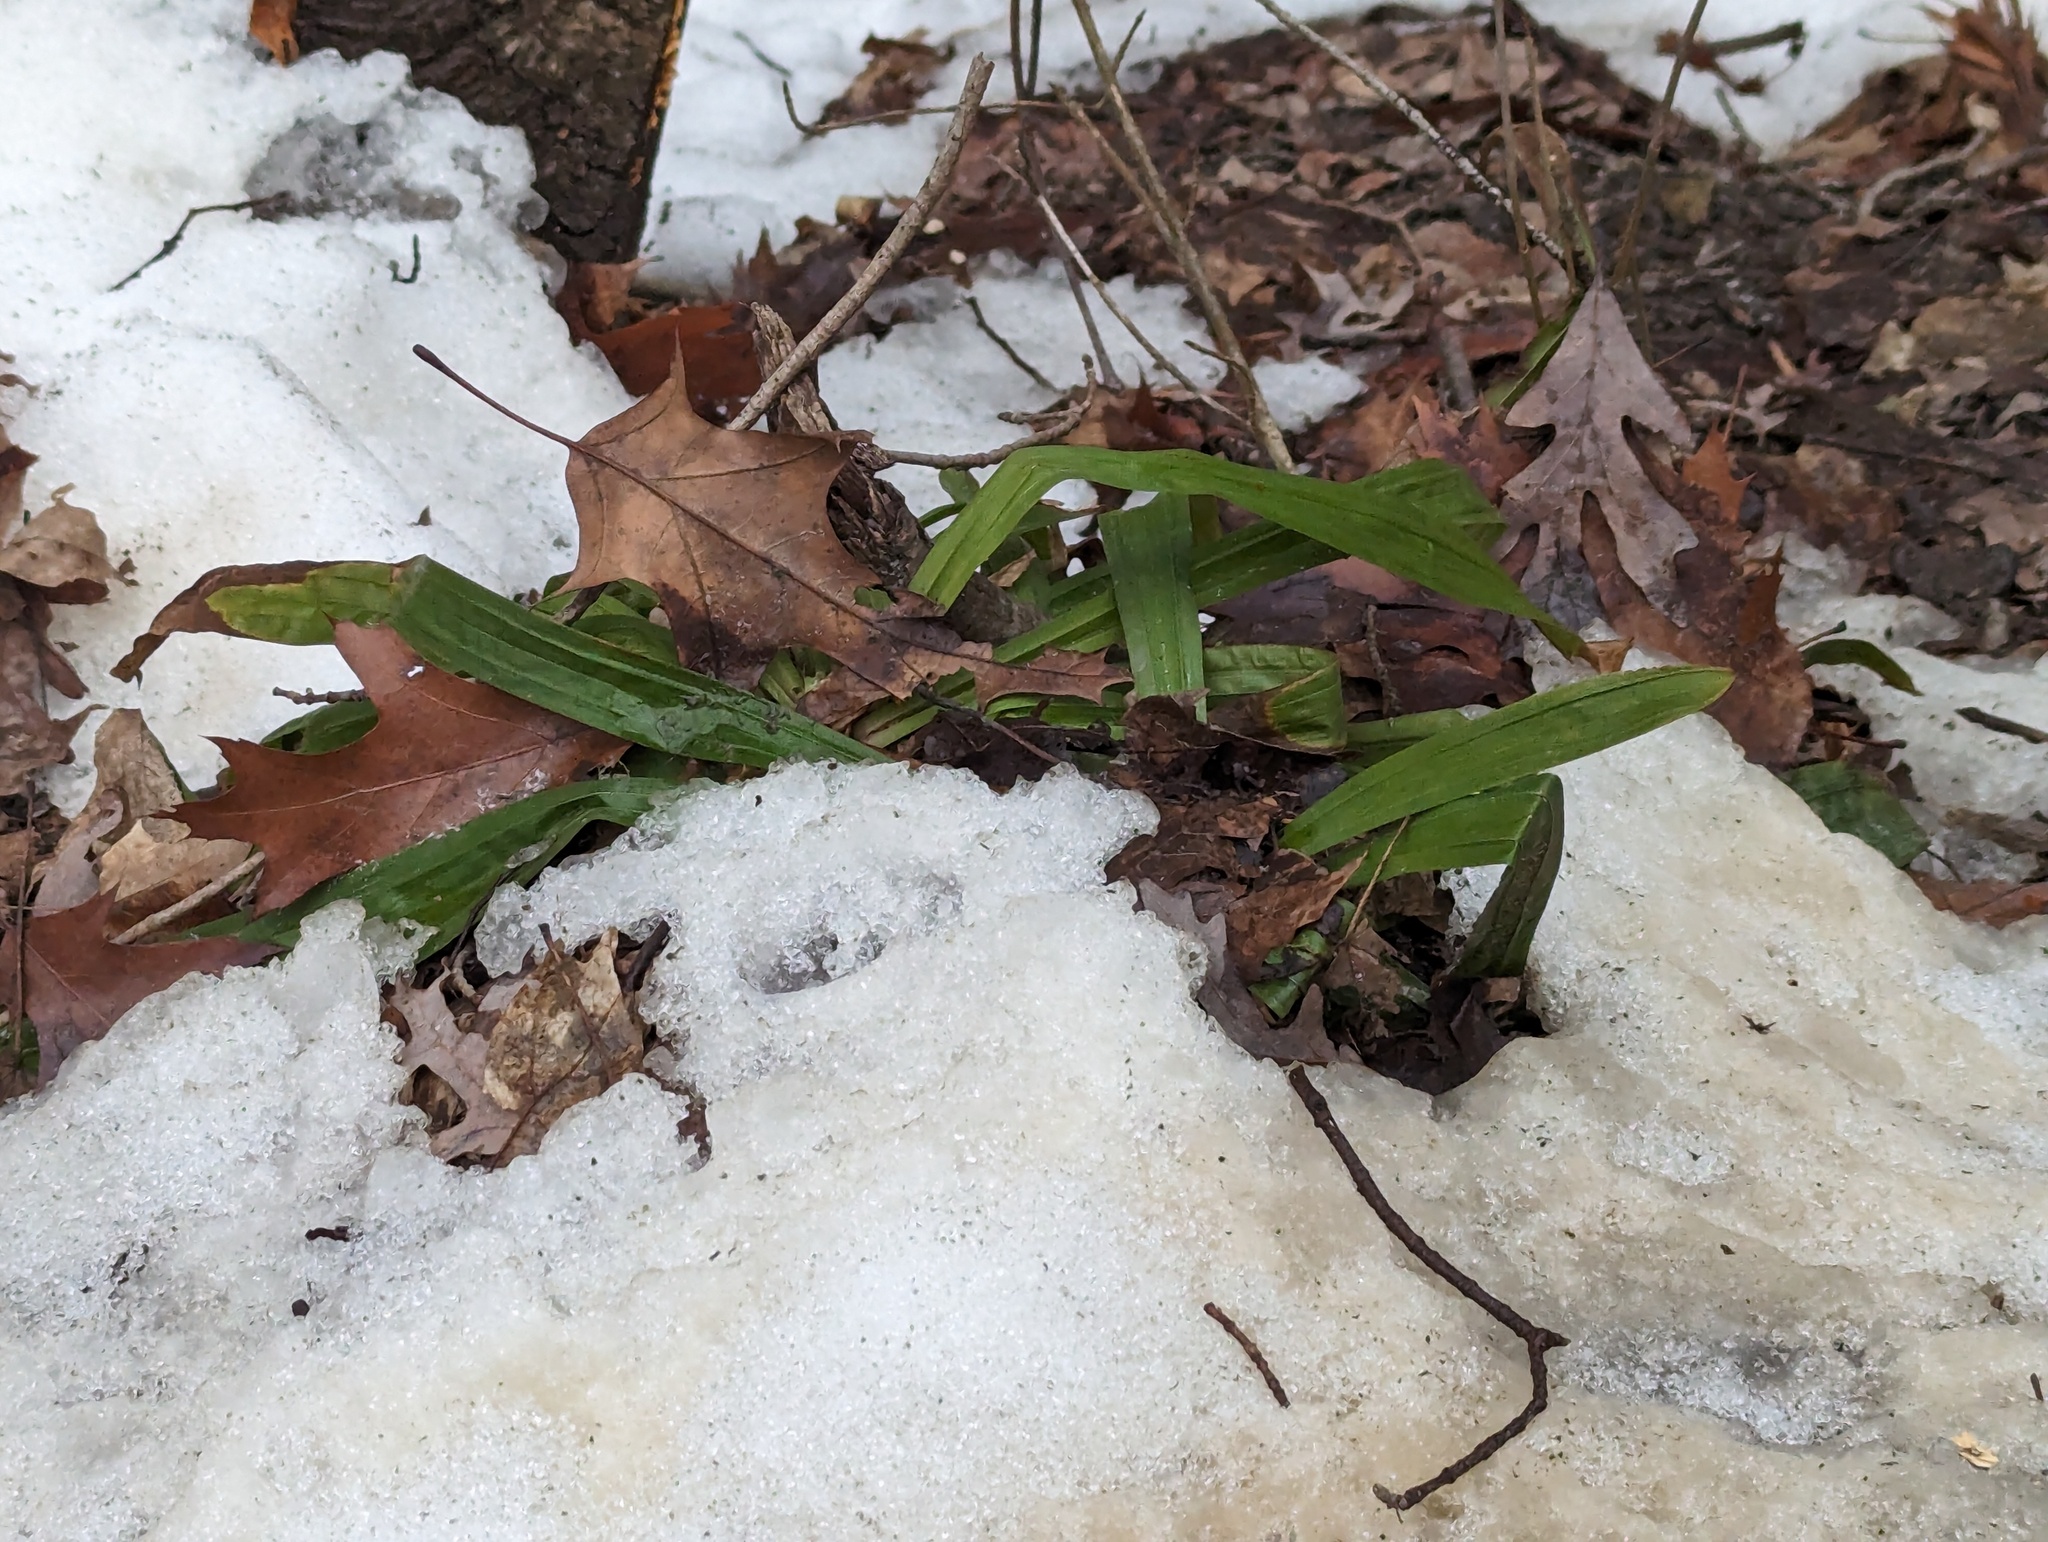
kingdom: Plantae
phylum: Tracheophyta
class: Liliopsida
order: Poales
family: Cyperaceae
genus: Carex
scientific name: Carex plantaginea
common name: Plantain-leaved sedge
